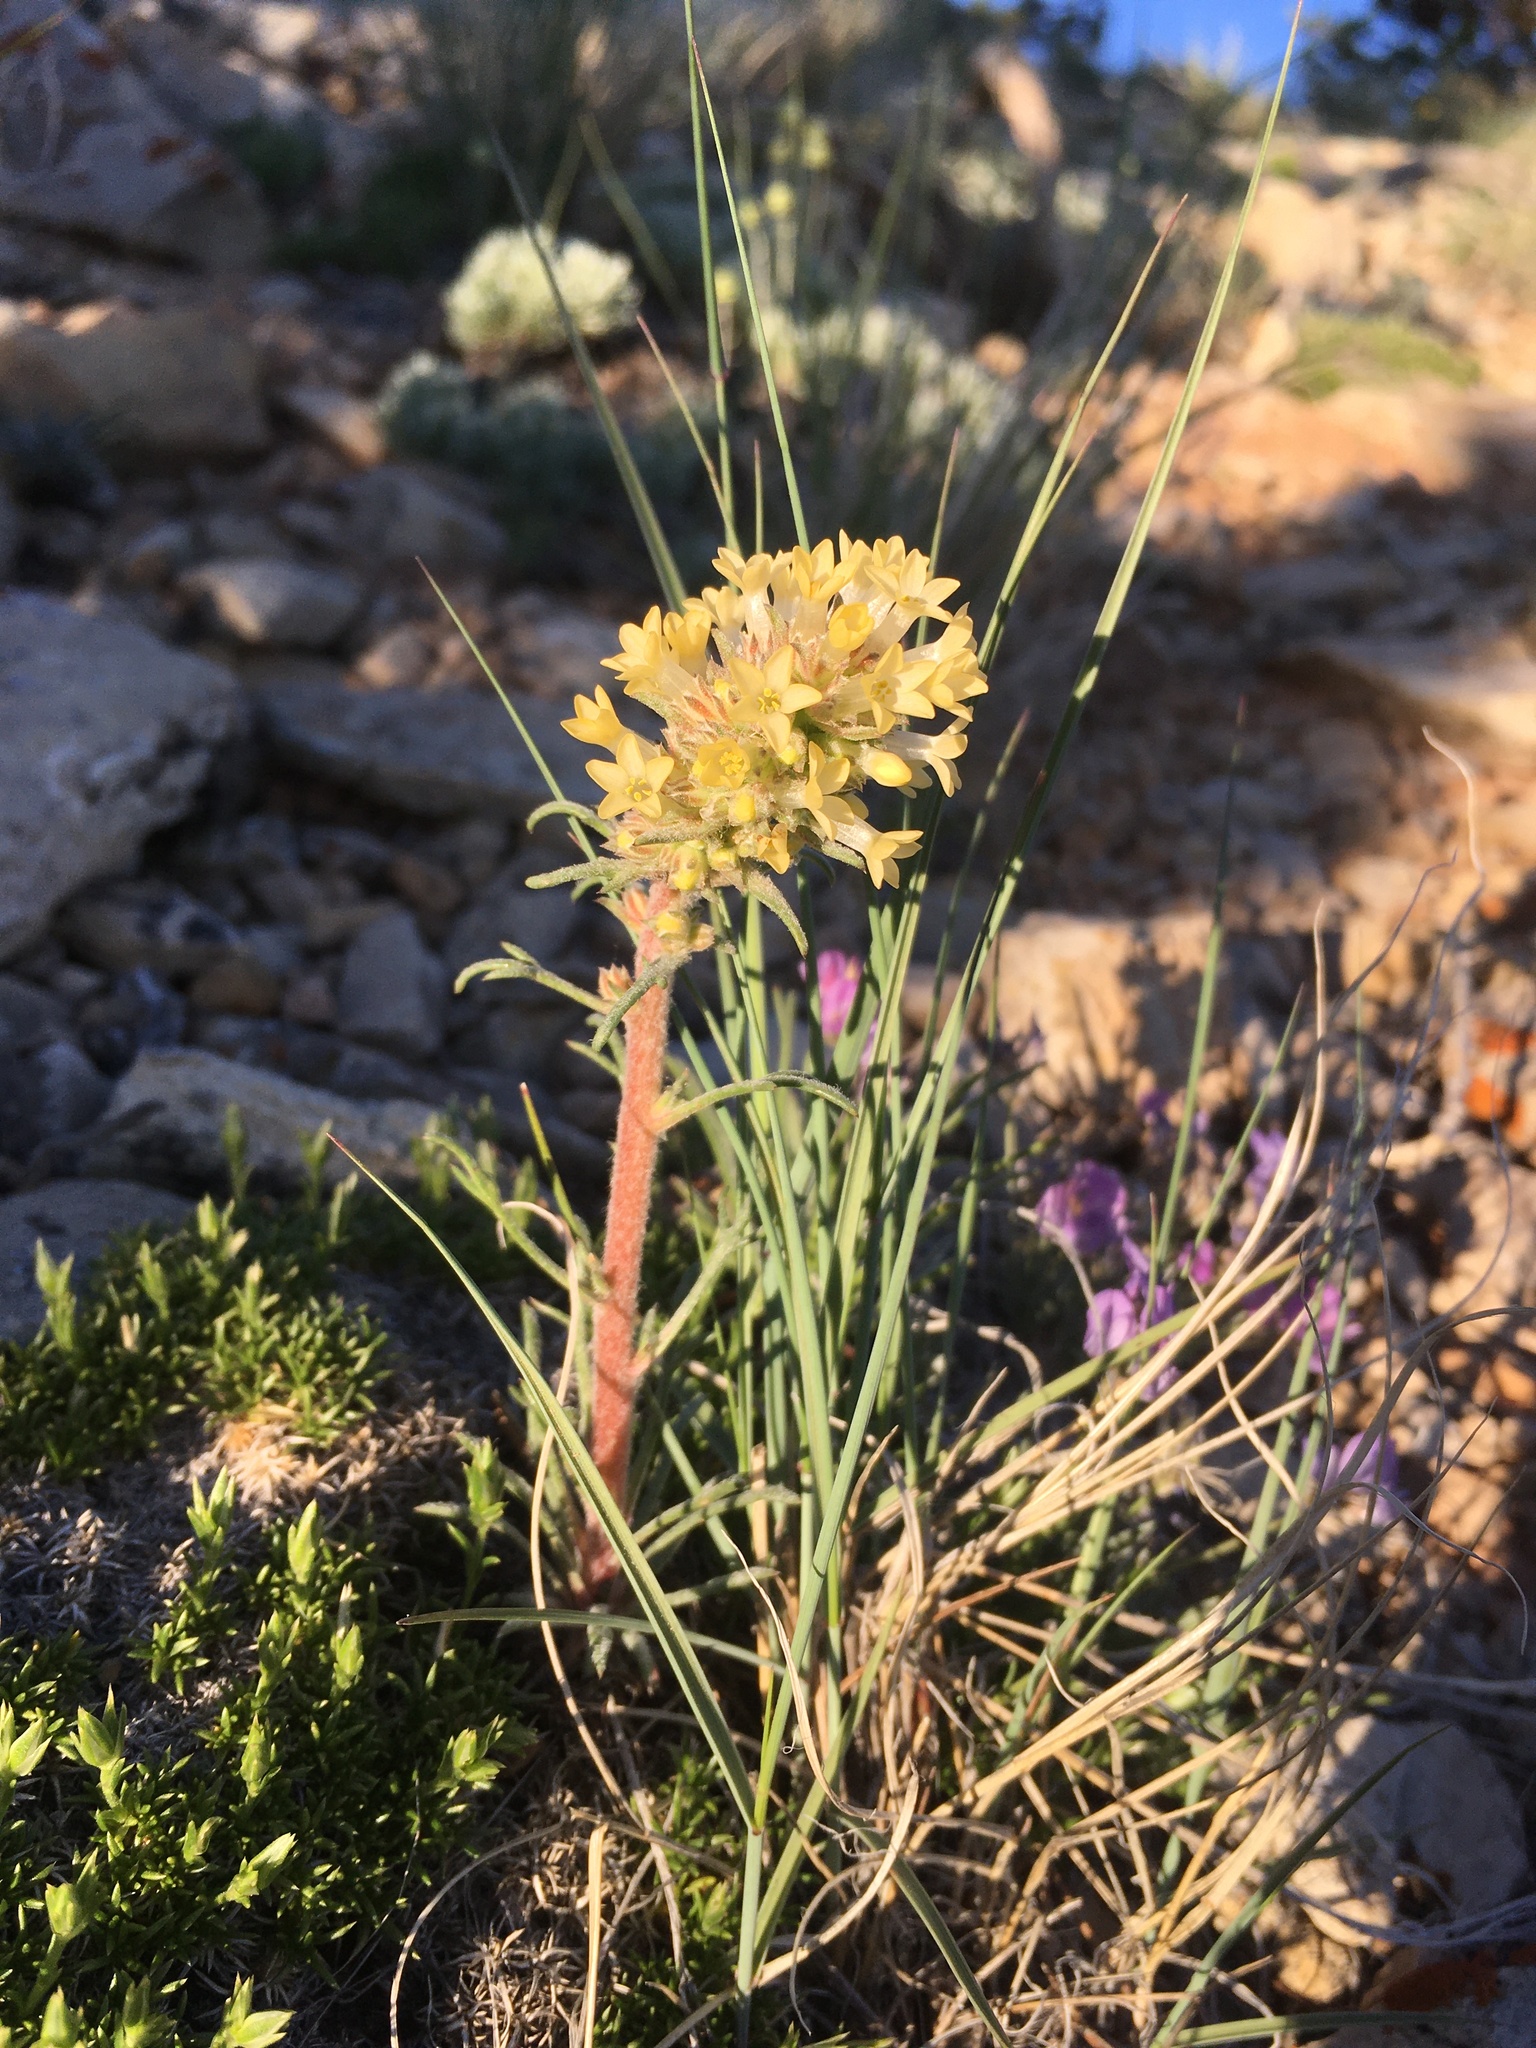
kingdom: Plantae
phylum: Tracheophyta
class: Magnoliopsida
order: Ericales
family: Polemoniaceae
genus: Ipomopsis
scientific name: Ipomopsis spicata
